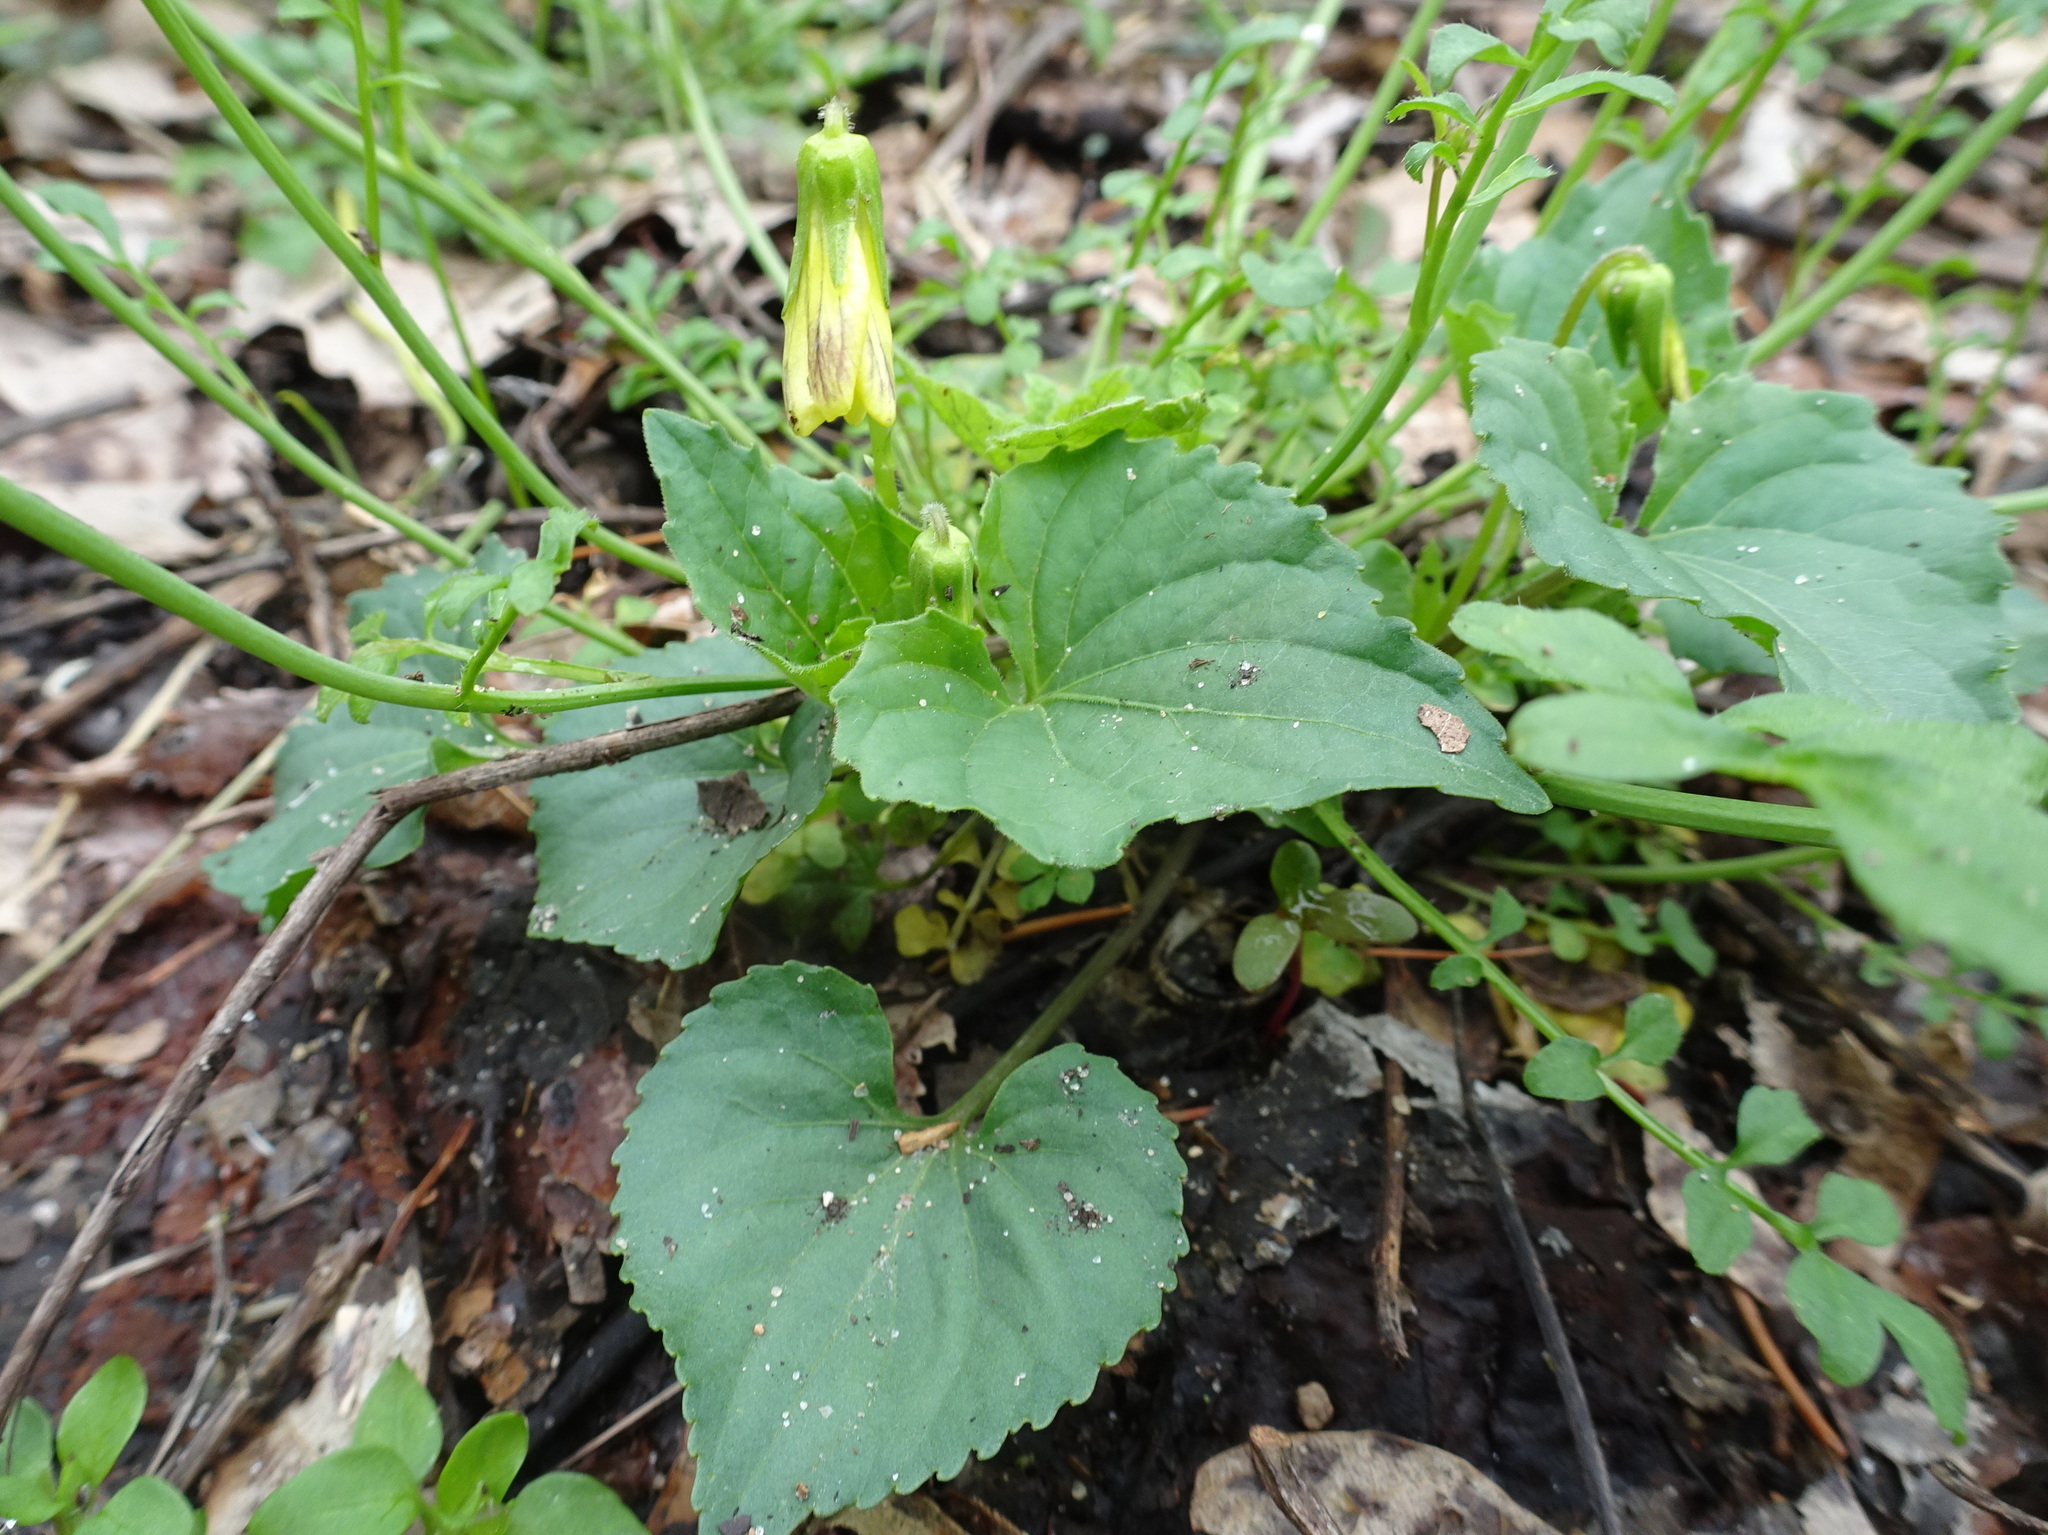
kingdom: Plantae
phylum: Tracheophyta
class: Magnoliopsida
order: Malpighiales
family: Violaceae
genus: Viola
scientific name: Viola eriocarpa
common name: Smooth yellow violet
